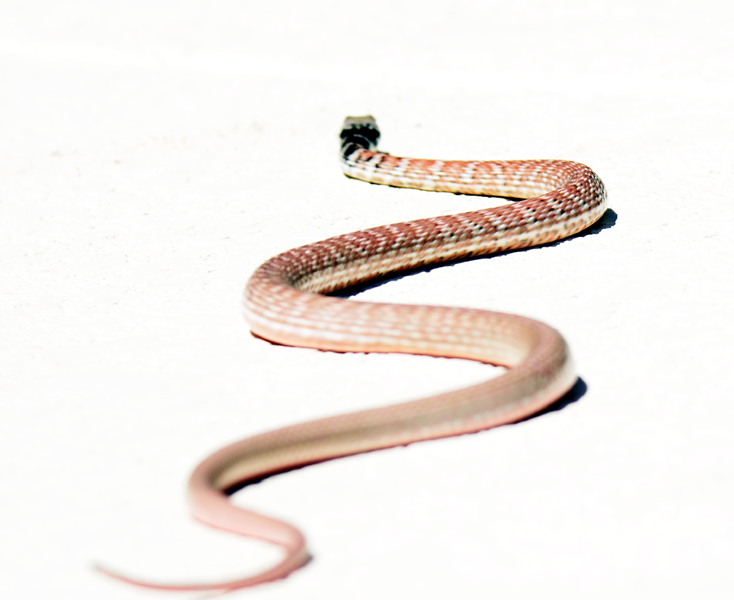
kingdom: Animalia
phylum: Chordata
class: Squamata
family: Colubridae
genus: Masticophis
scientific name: Masticophis flagellum
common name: Coachwhip
